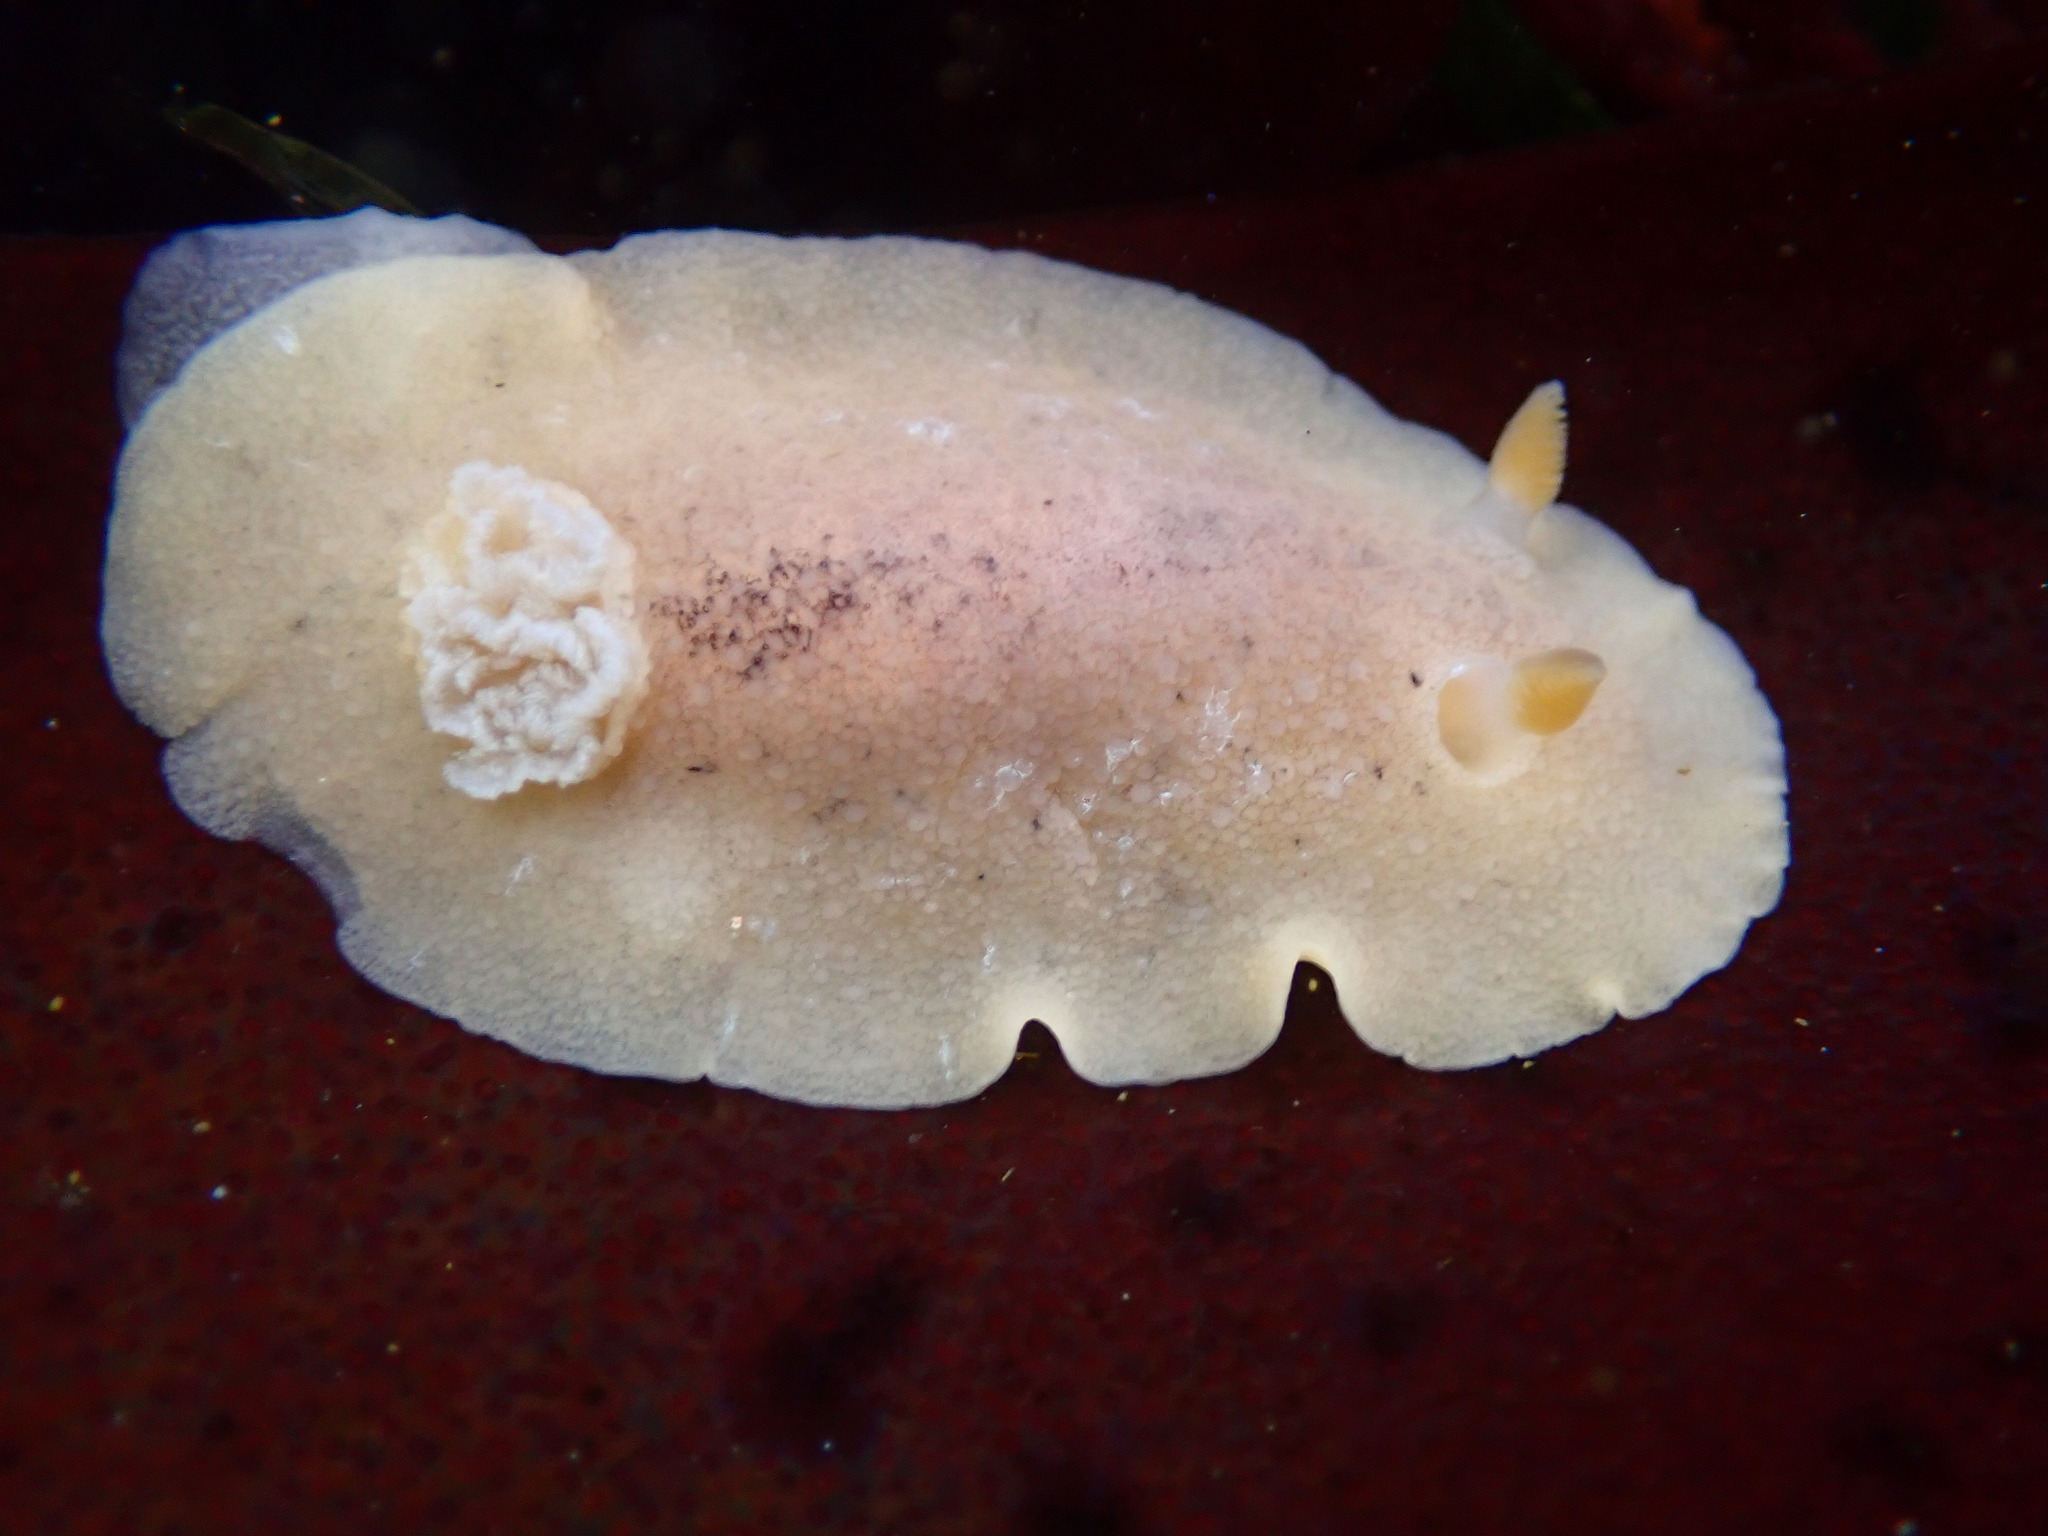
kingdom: Animalia
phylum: Mollusca
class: Gastropoda
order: Nudibranchia
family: Discodorididae
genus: Geitodoris
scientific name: Geitodoris heathi
